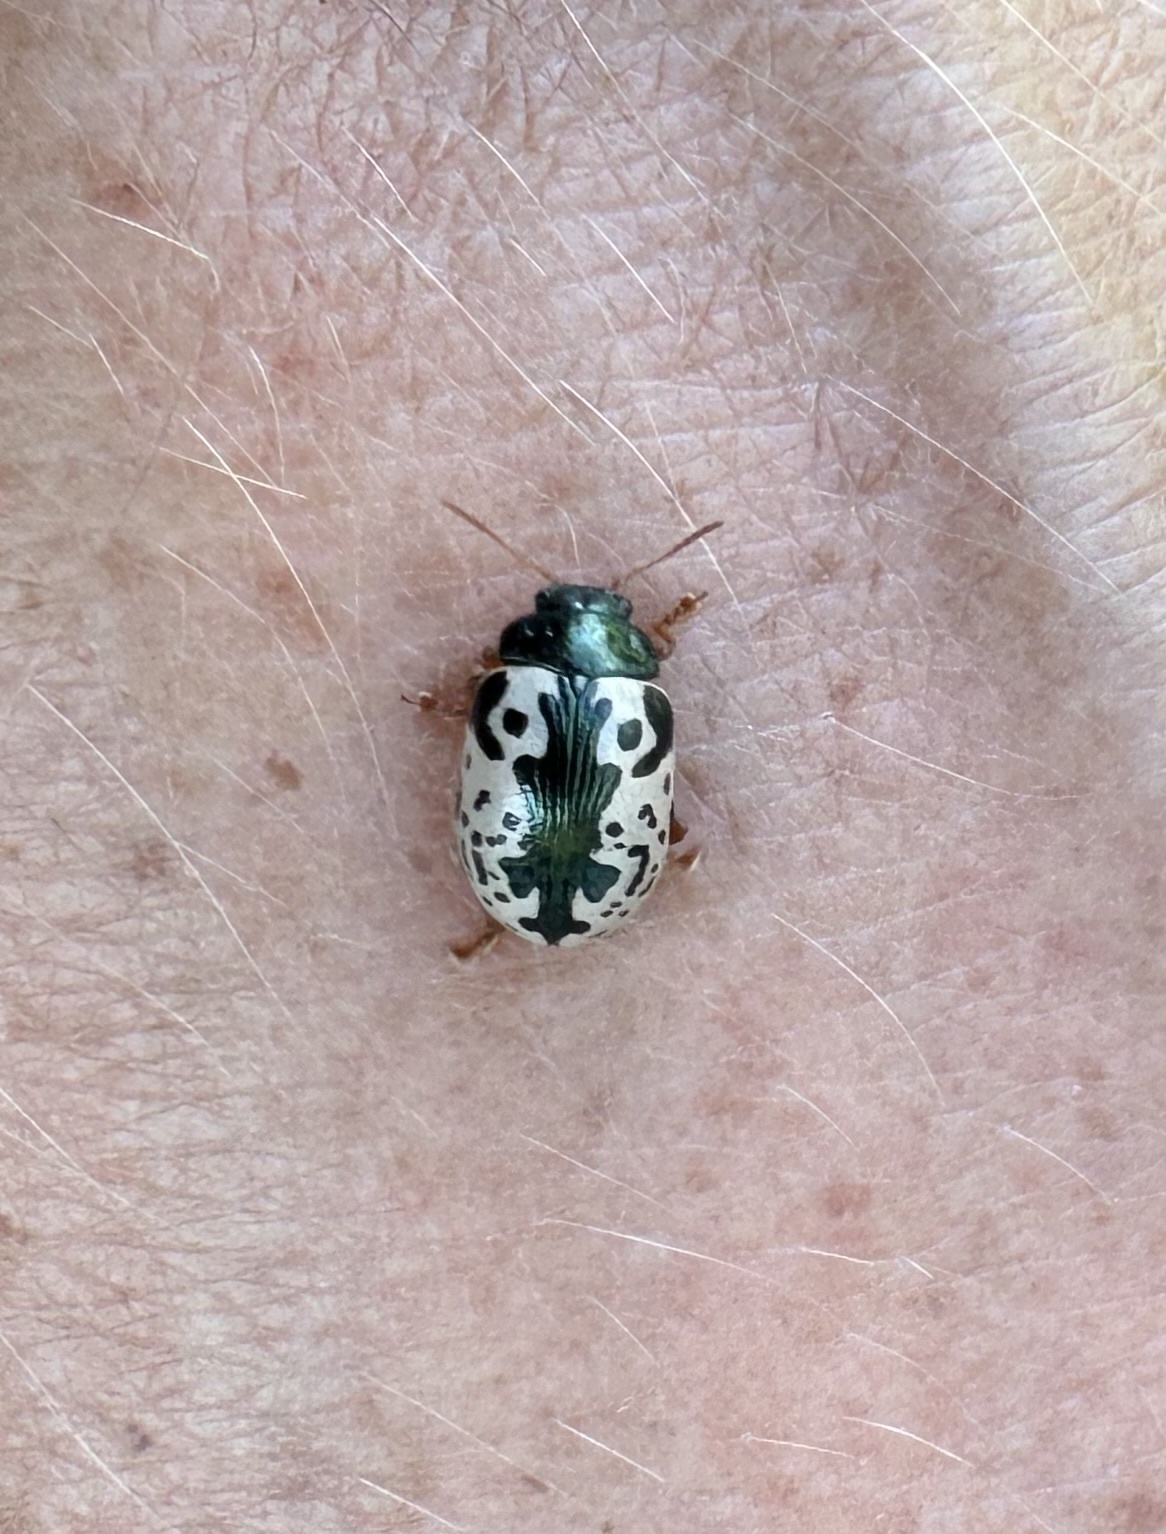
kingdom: Animalia
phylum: Arthropoda
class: Insecta
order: Coleoptera
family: Chrysomelidae
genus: Calligrapha
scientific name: Calligrapha confluens
